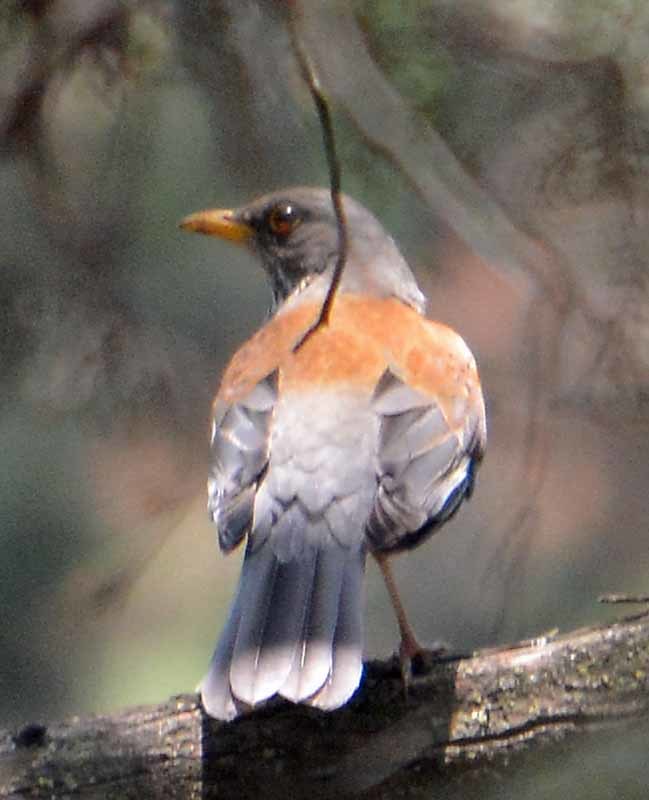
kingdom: Animalia
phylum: Chordata
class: Aves
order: Passeriformes
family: Turdidae
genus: Turdus
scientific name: Turdus rufopalliatus
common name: Rufous-backed robin
